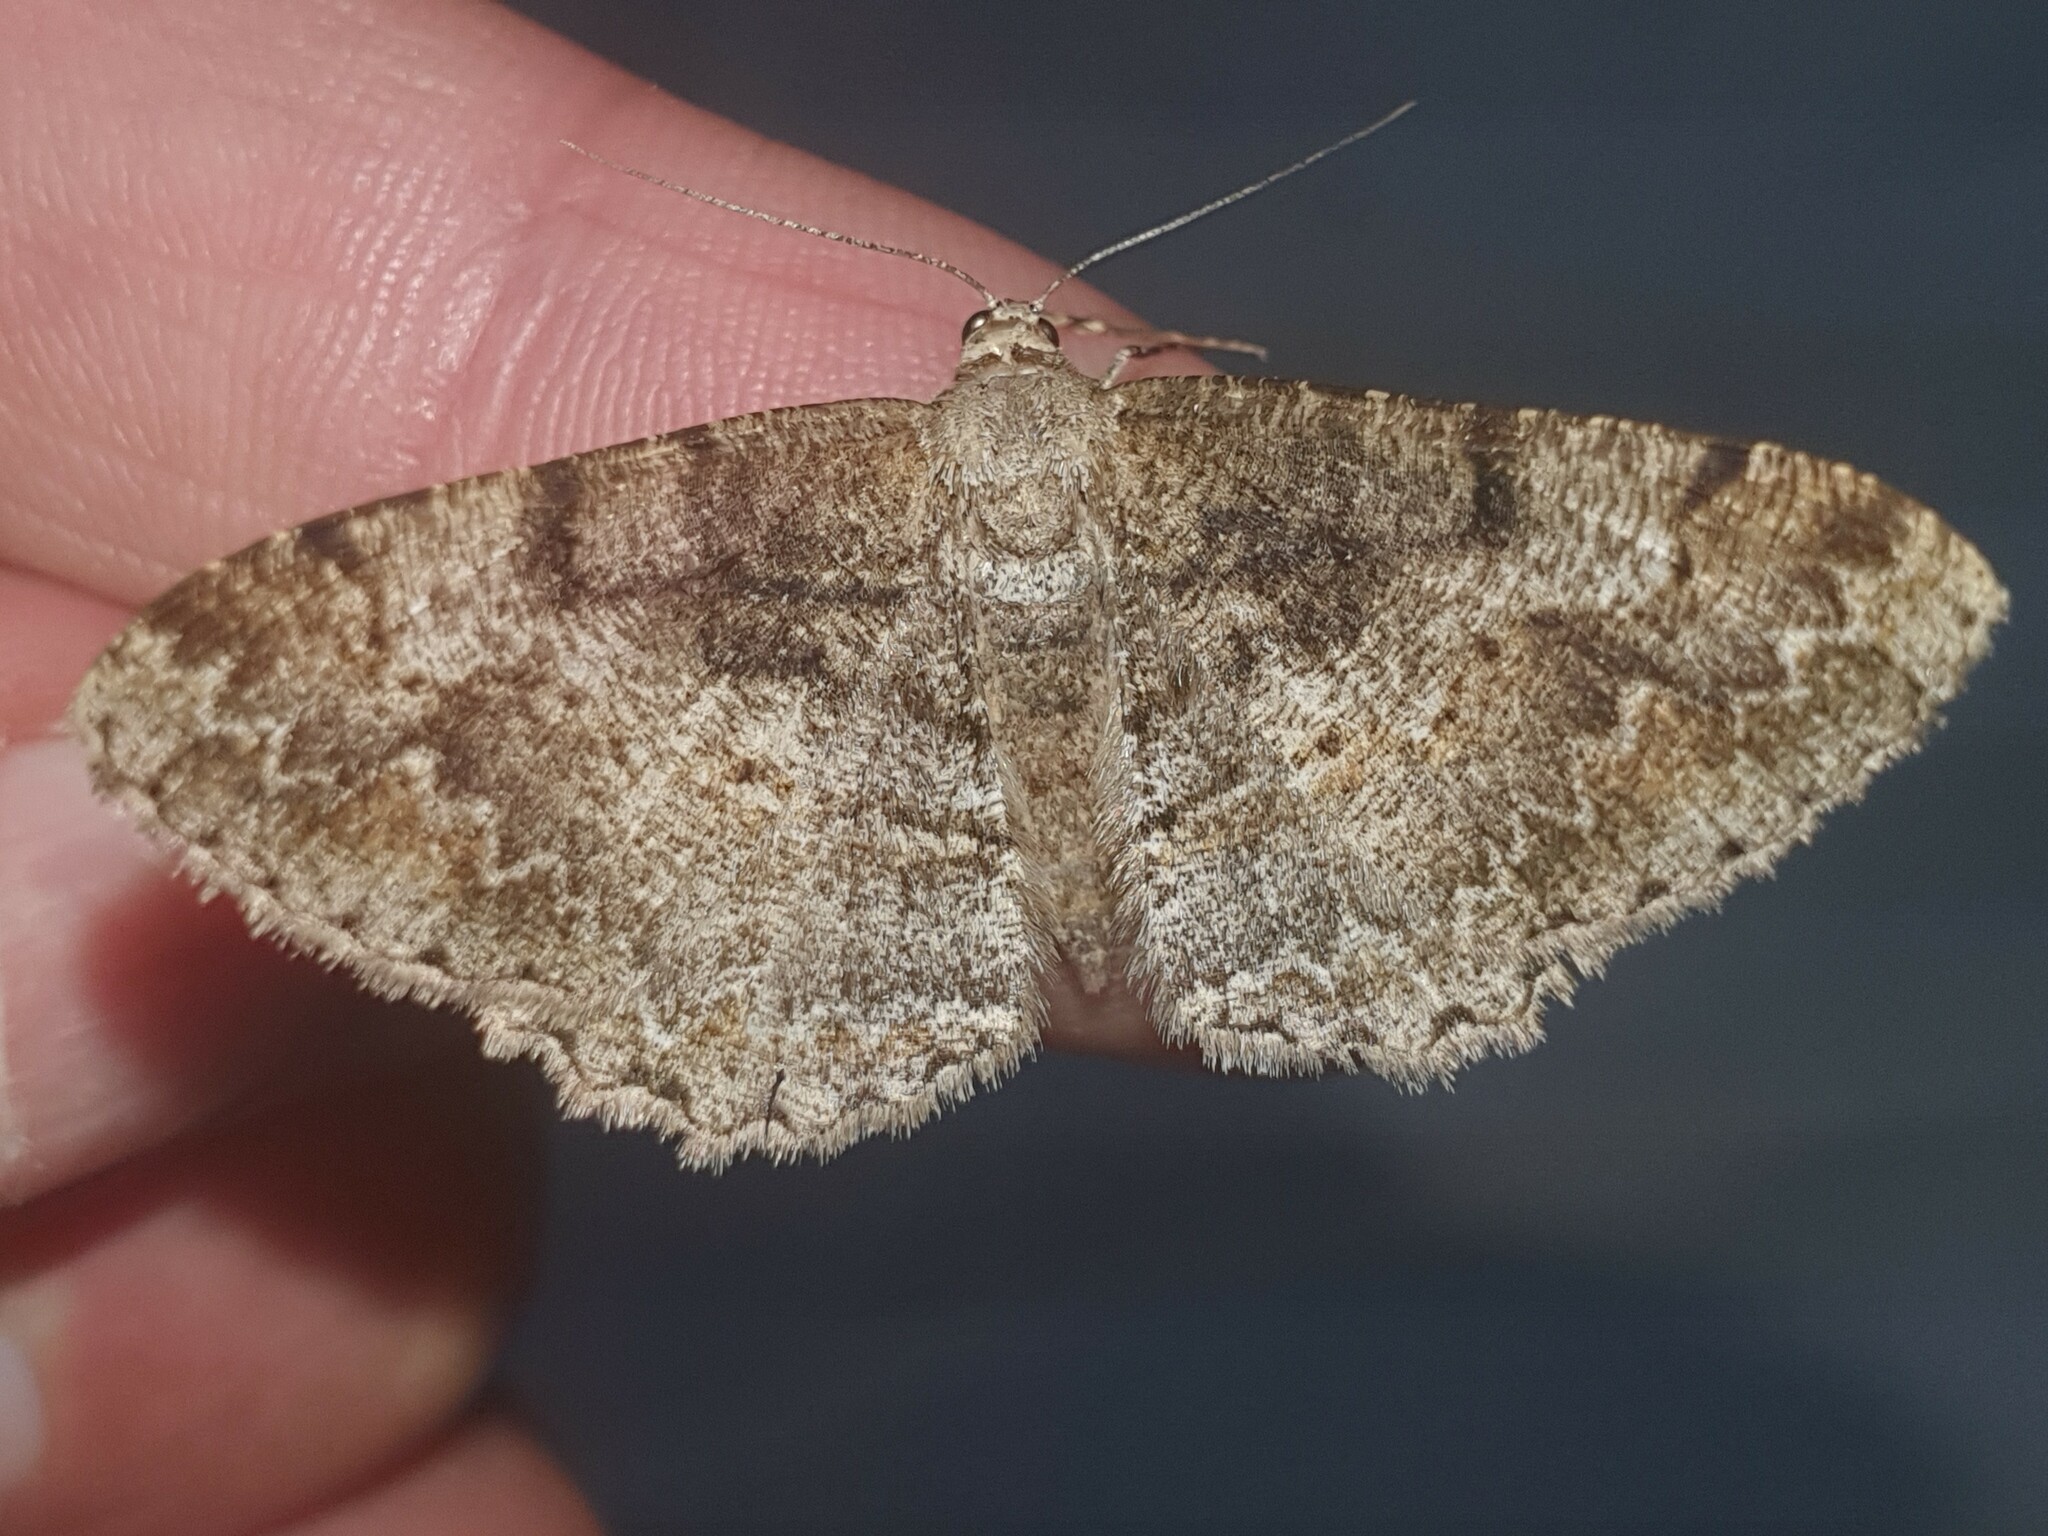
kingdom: Animalia
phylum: Arthropoda
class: Insecta
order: Lepidoptera
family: Geometridae
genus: Alcis
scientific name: Alcis repandata
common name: Mottled beauty
